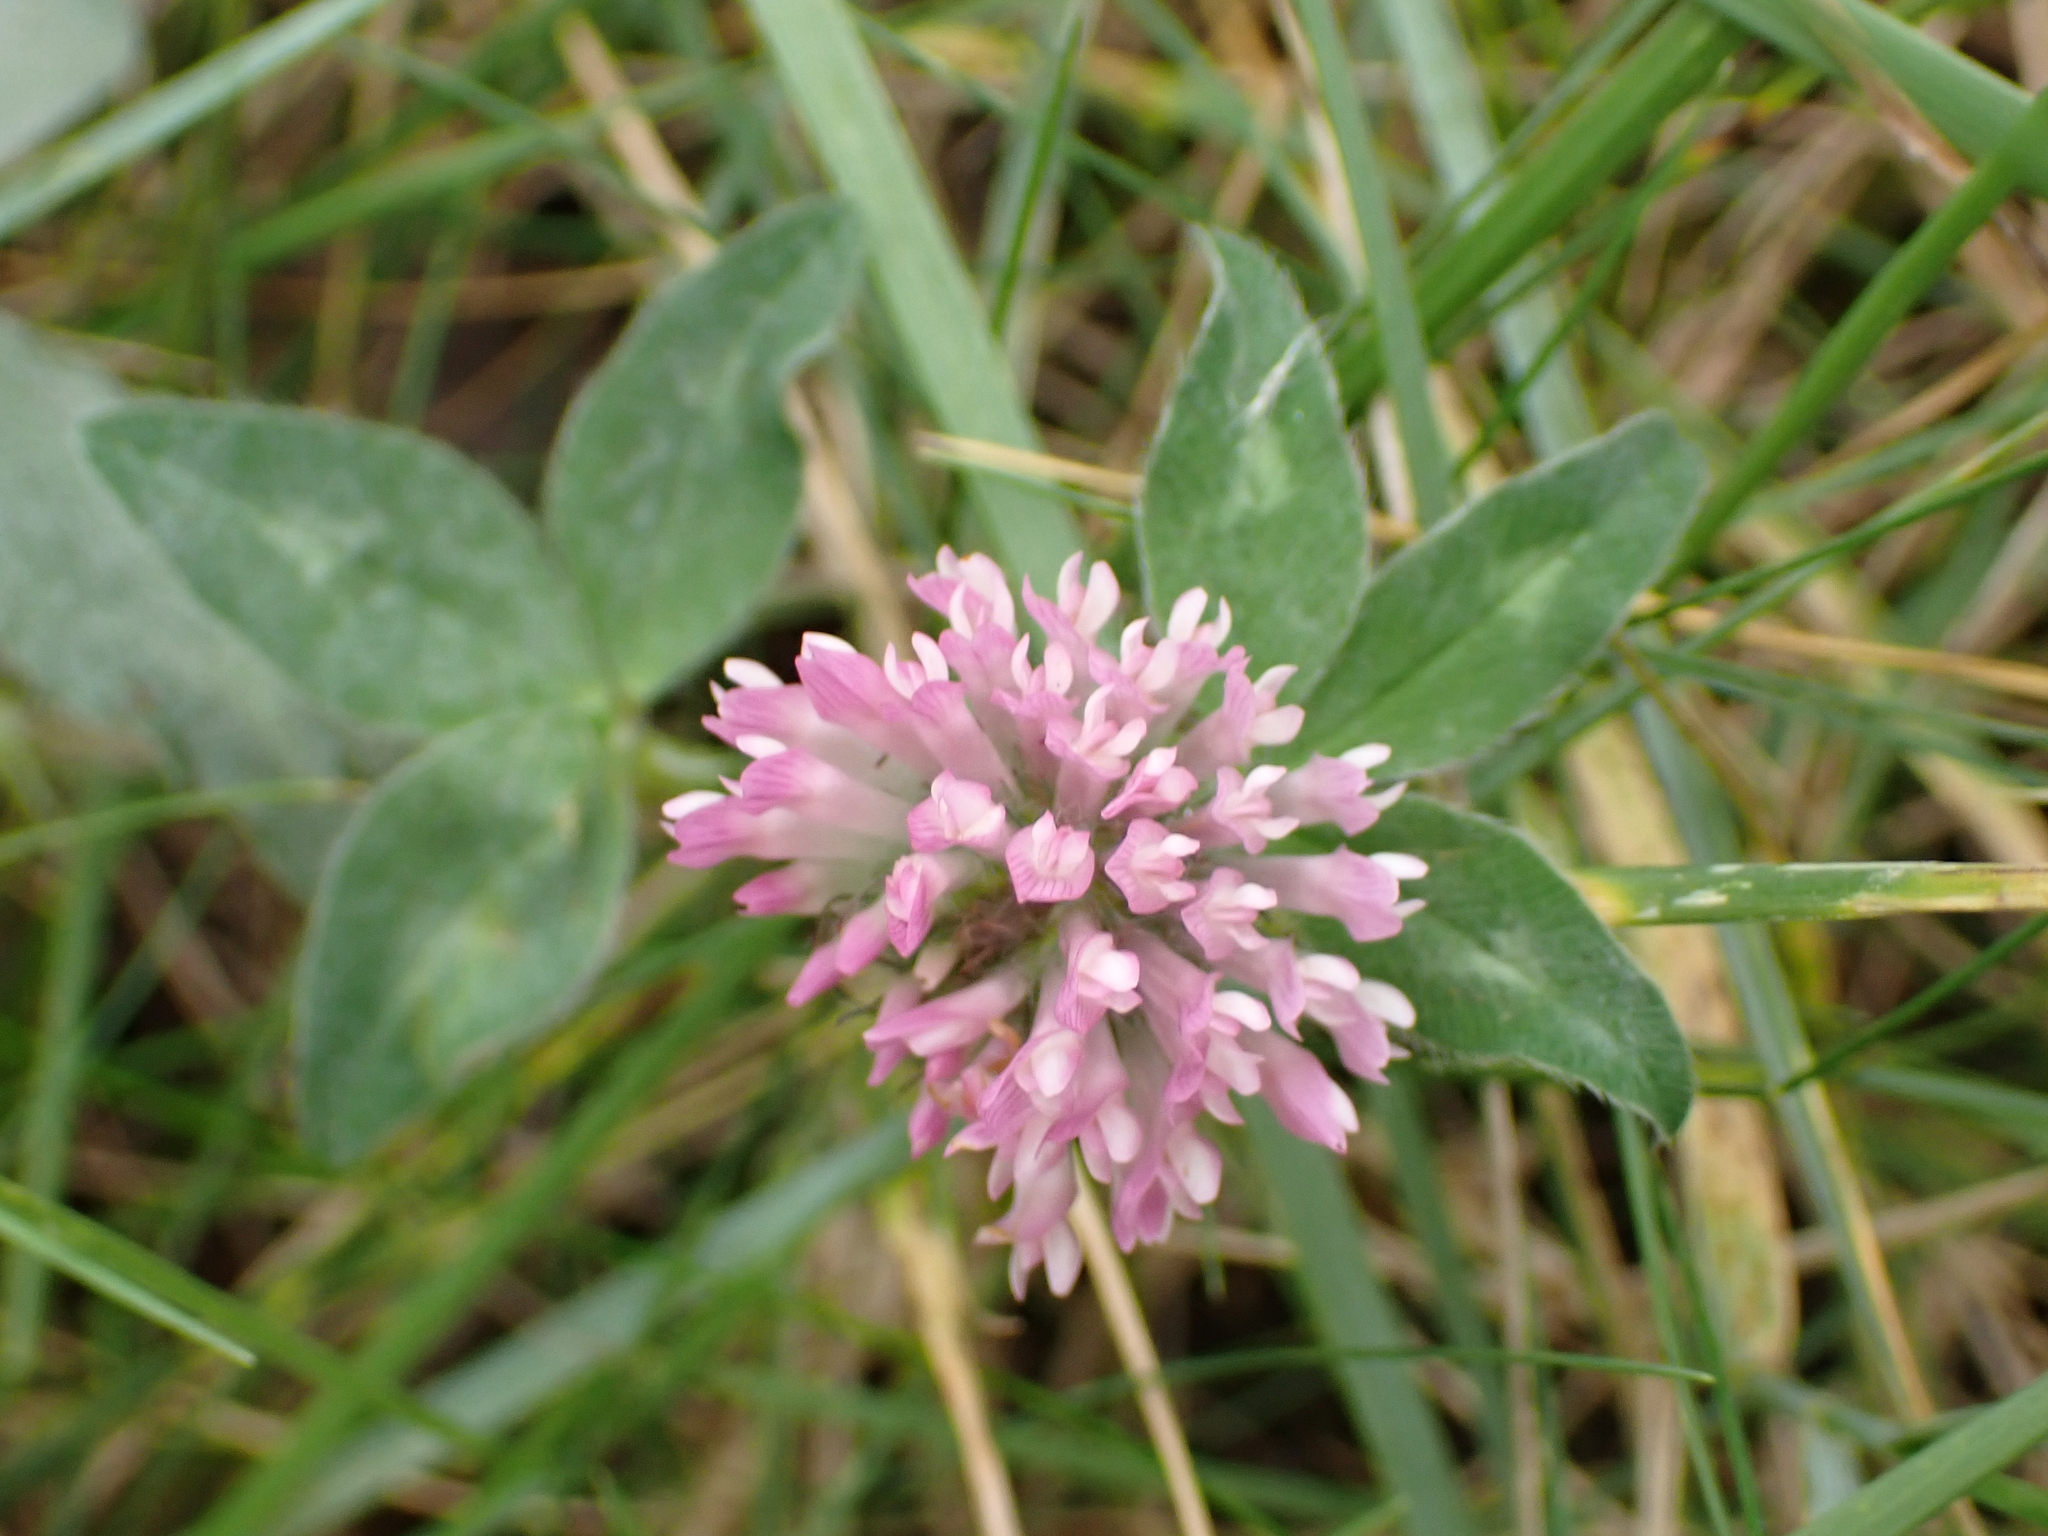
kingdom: Plantae
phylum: Tracheophyta
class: Magnoliopsida
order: Fabales
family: Fabaceae
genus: Trifolium
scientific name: Trifolium pratense
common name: Red clover
